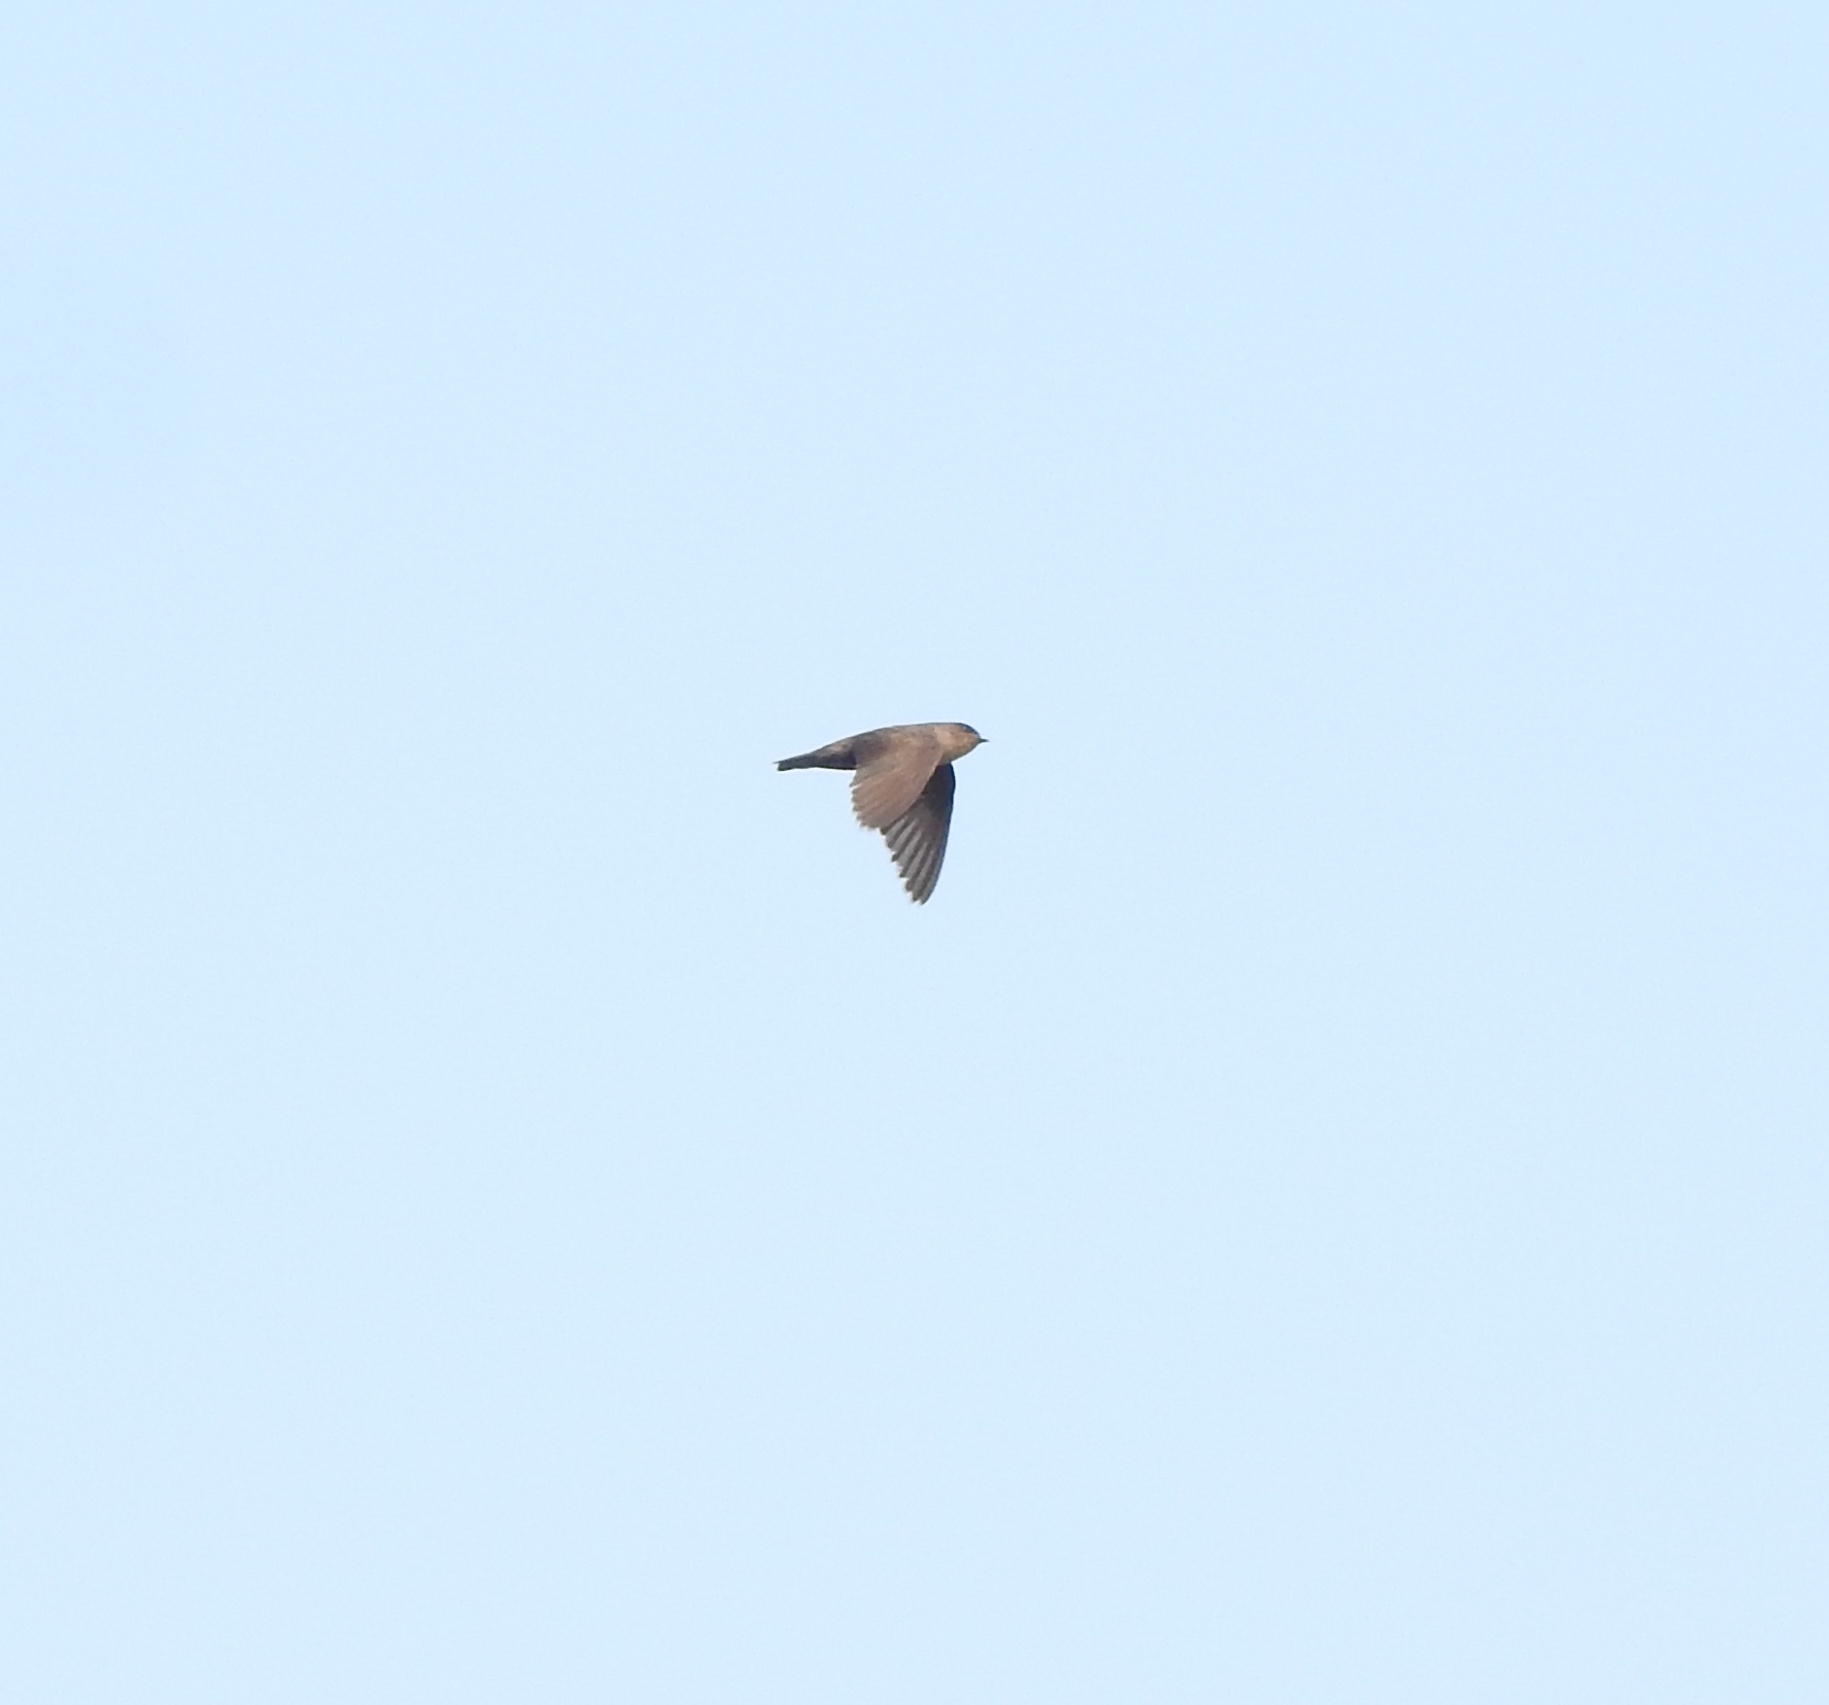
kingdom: Animalia
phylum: Chordata
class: Aves
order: Passeriformes
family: Hirundinidae
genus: Ptyonoprogne
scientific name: Ptyonoprogne concolor
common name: Dusky crag-martin
